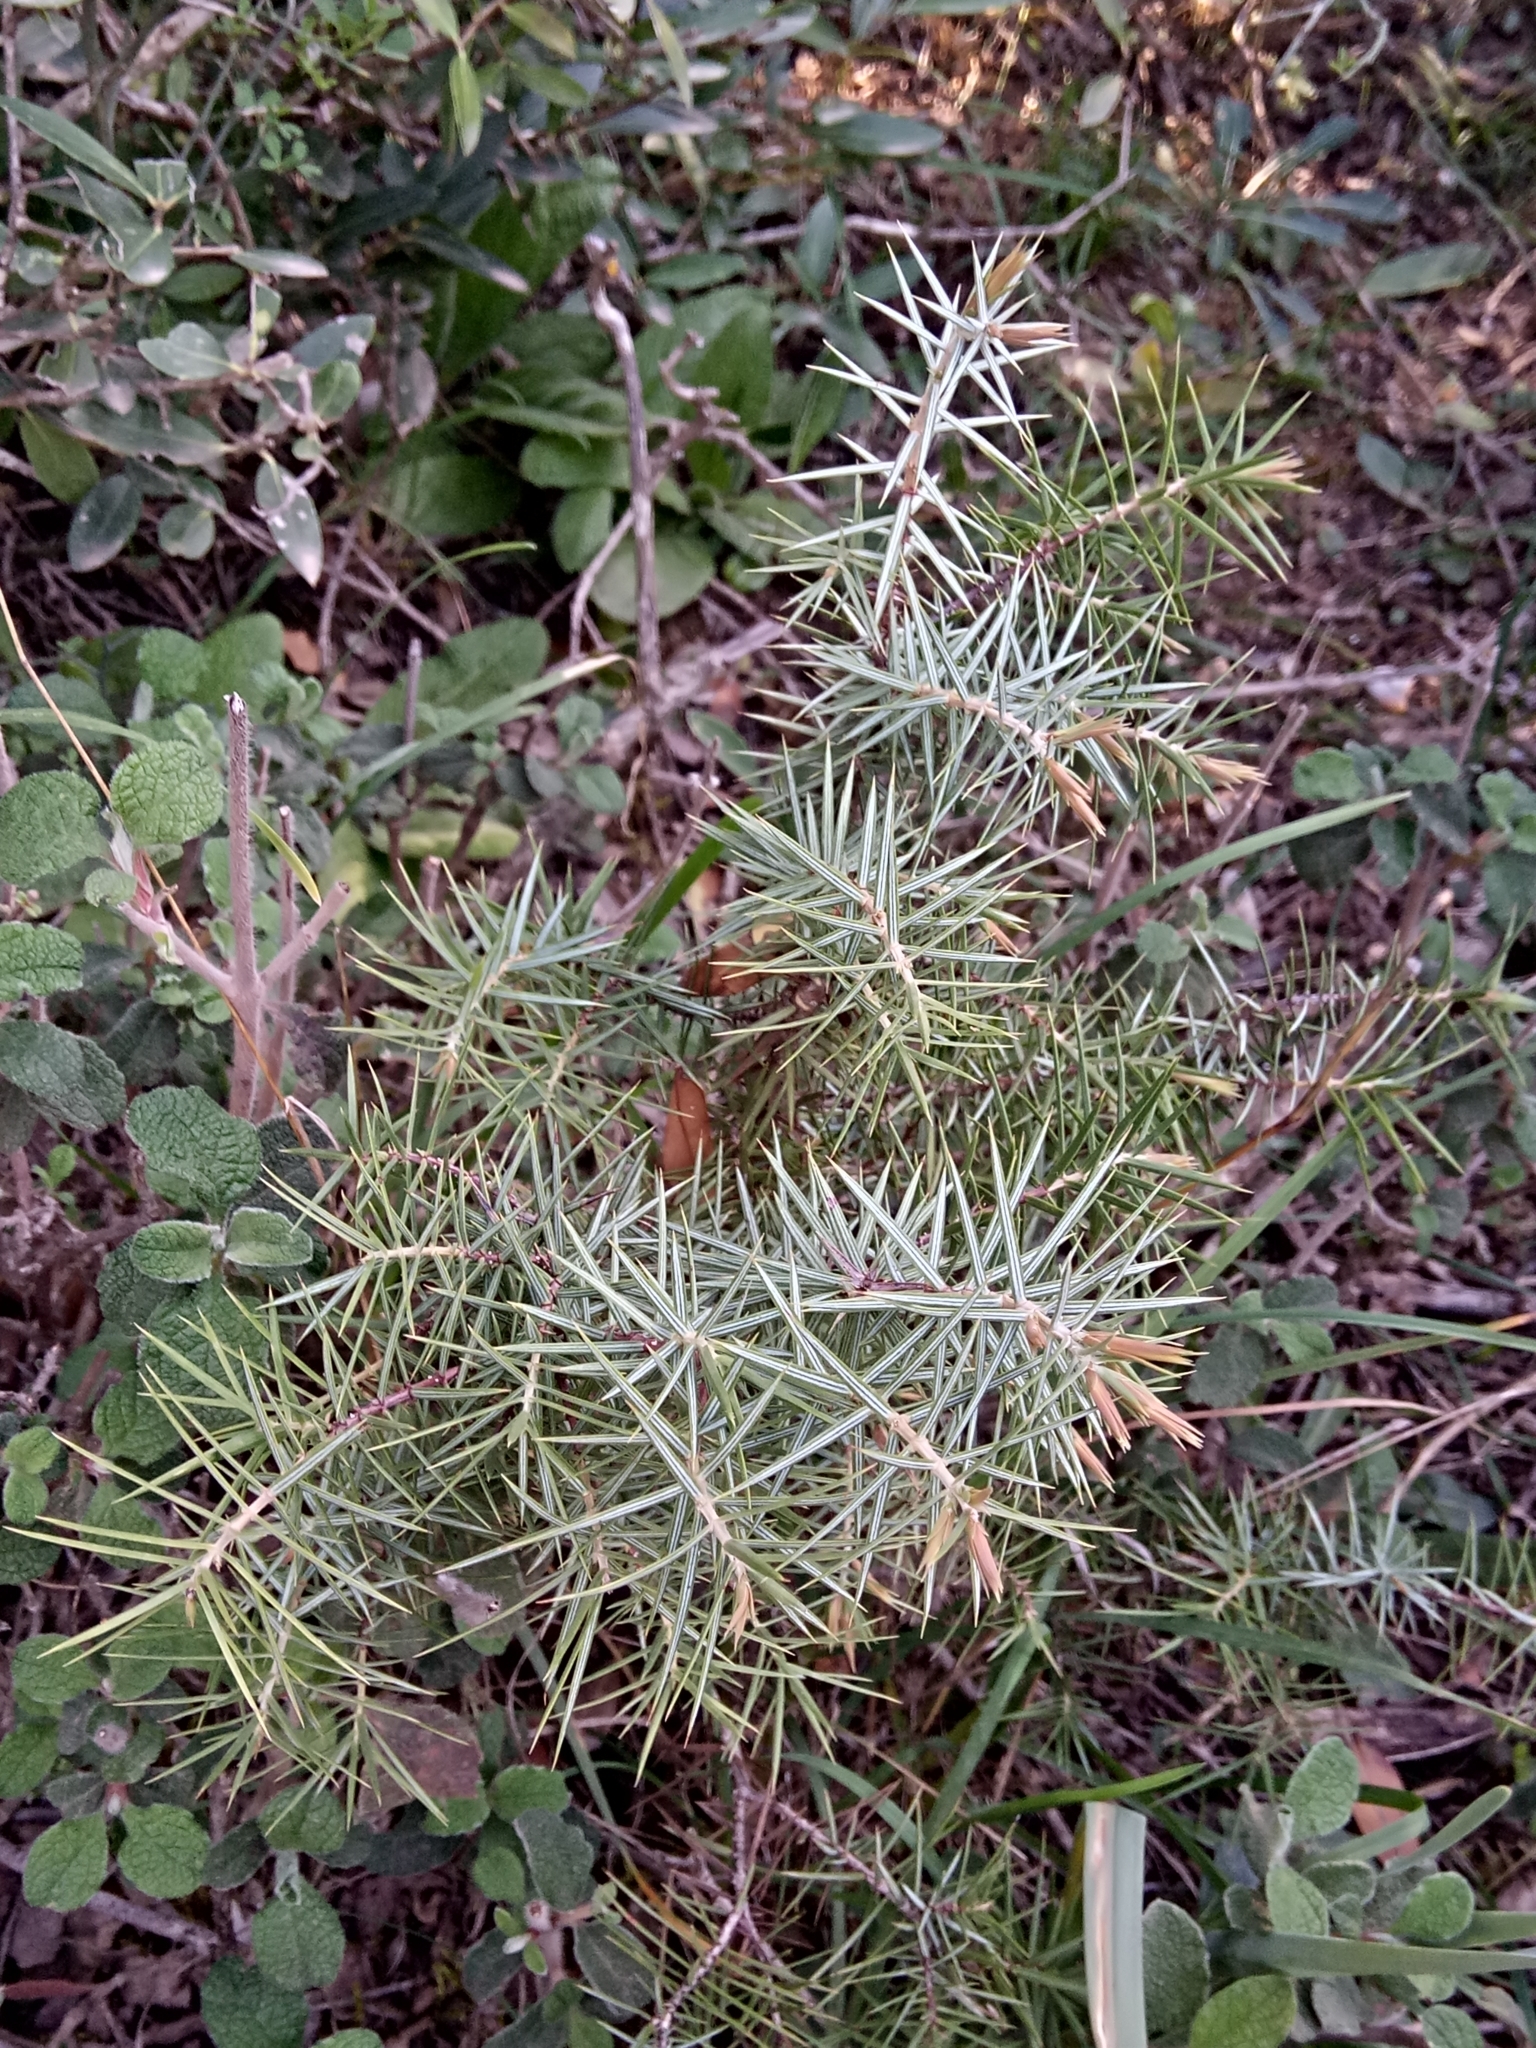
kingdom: Plantae
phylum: Tracheophyta
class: Pinopsida
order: Pinales
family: Cupressaceae
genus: Juniperus
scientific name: Juniperus oxycedrus
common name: Prickly juniper
